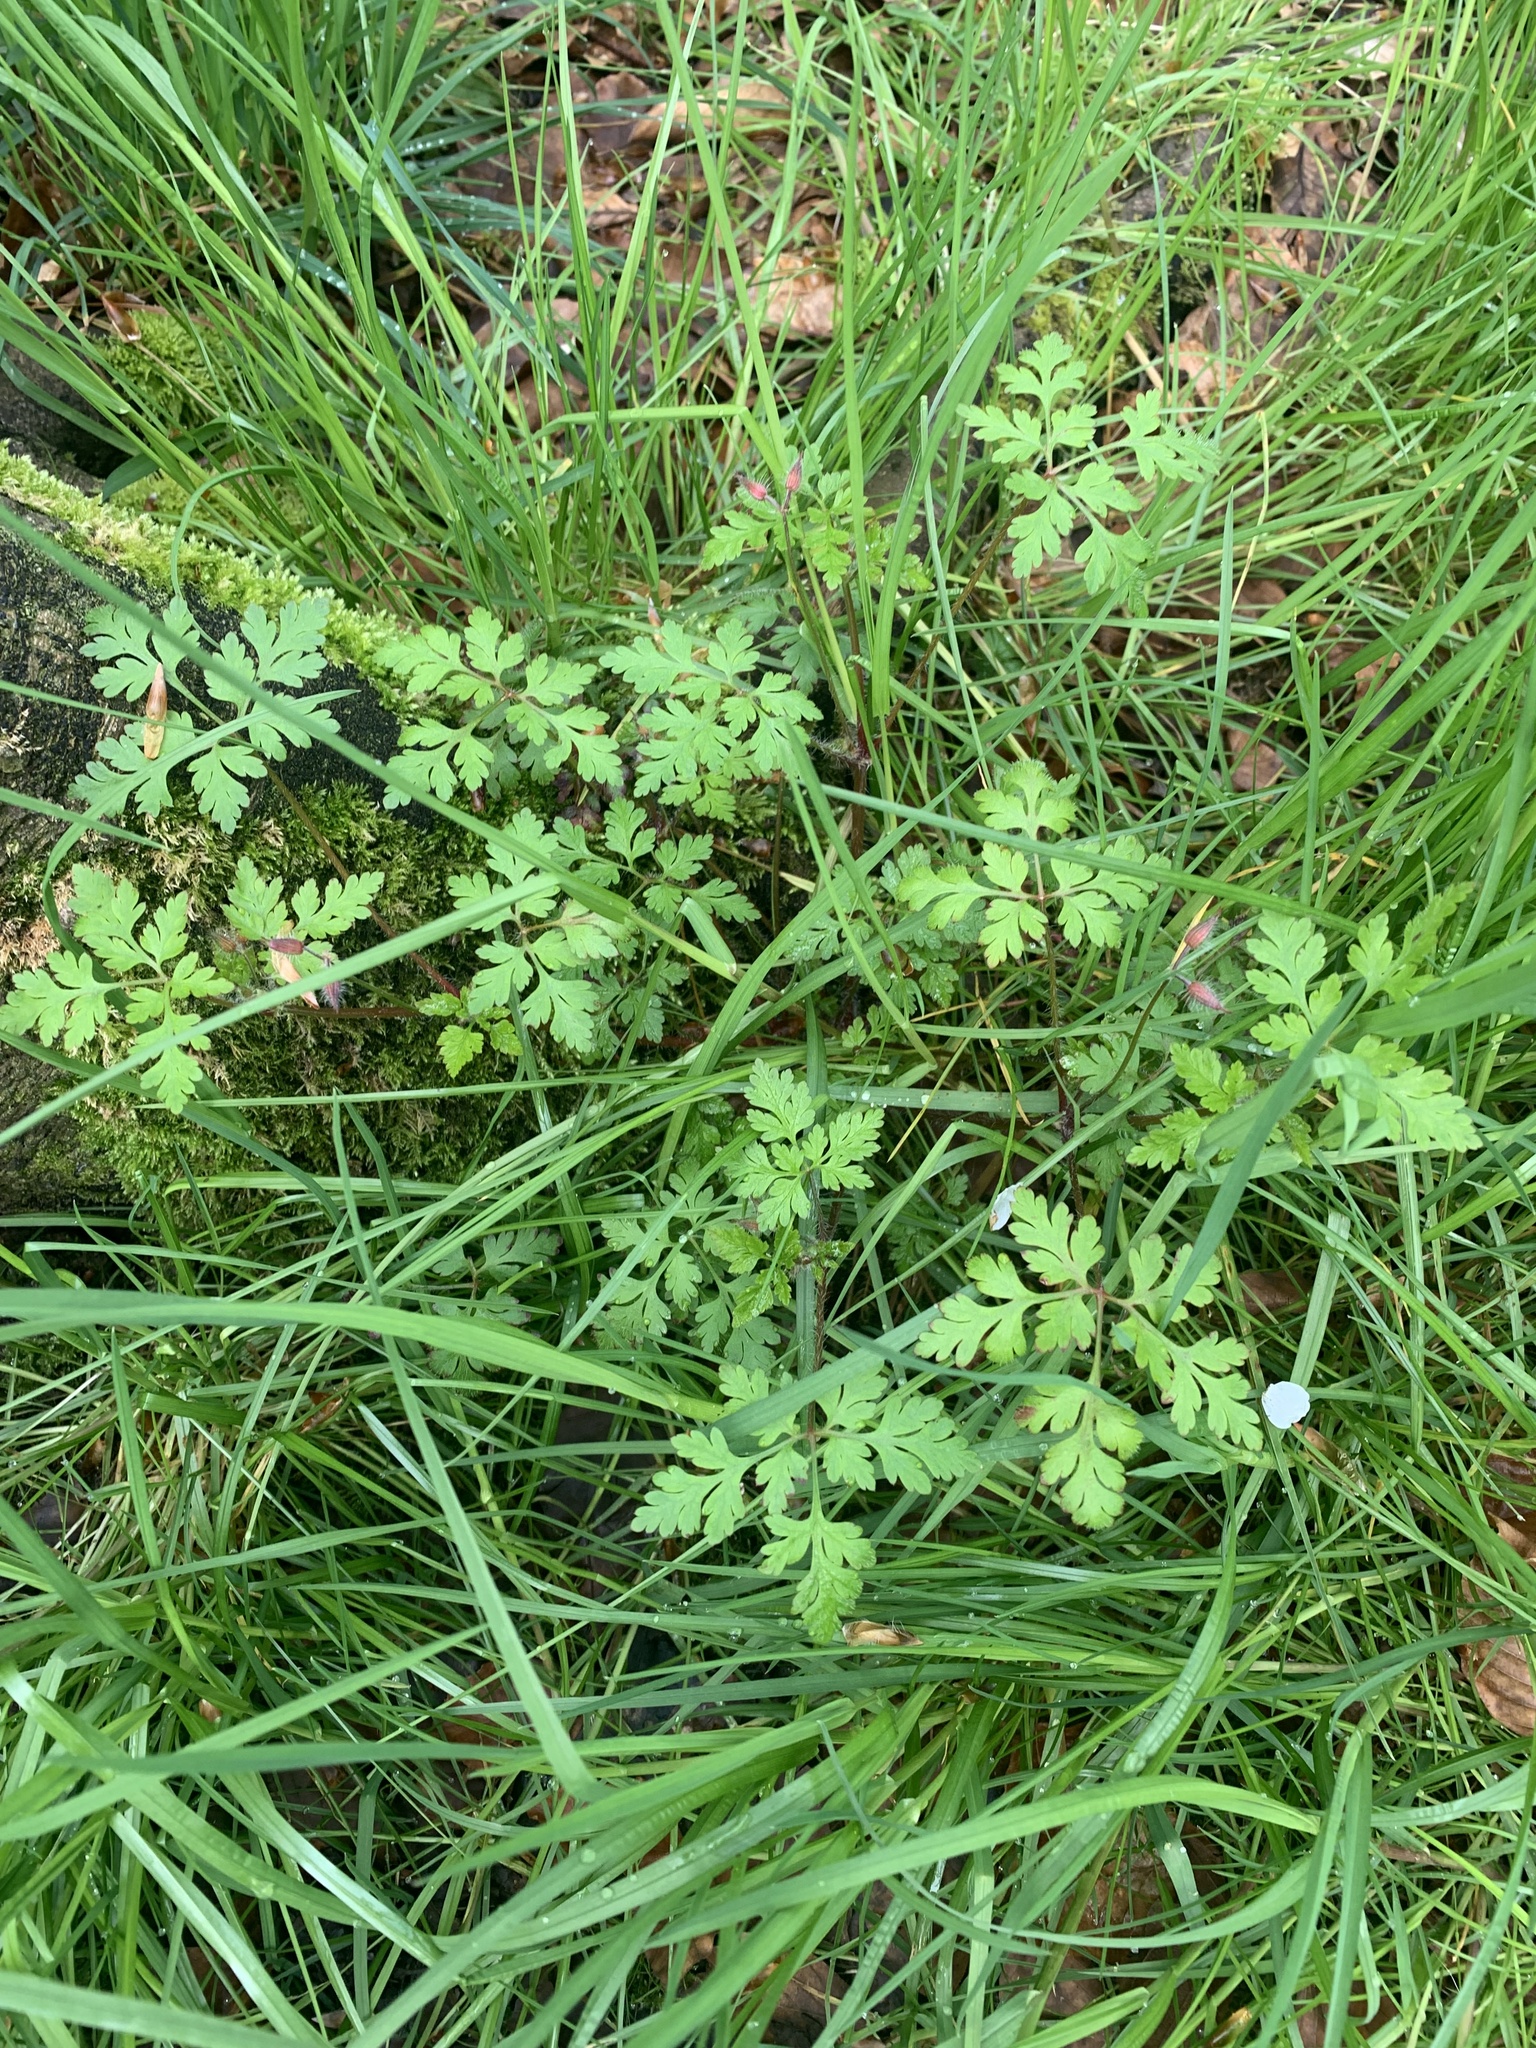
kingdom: Plantae
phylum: Tracheophyta
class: Magnoliopsida
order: Geraniales
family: Geraniaceae
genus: Geranium
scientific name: Geranium purpureum
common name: Little-robin
